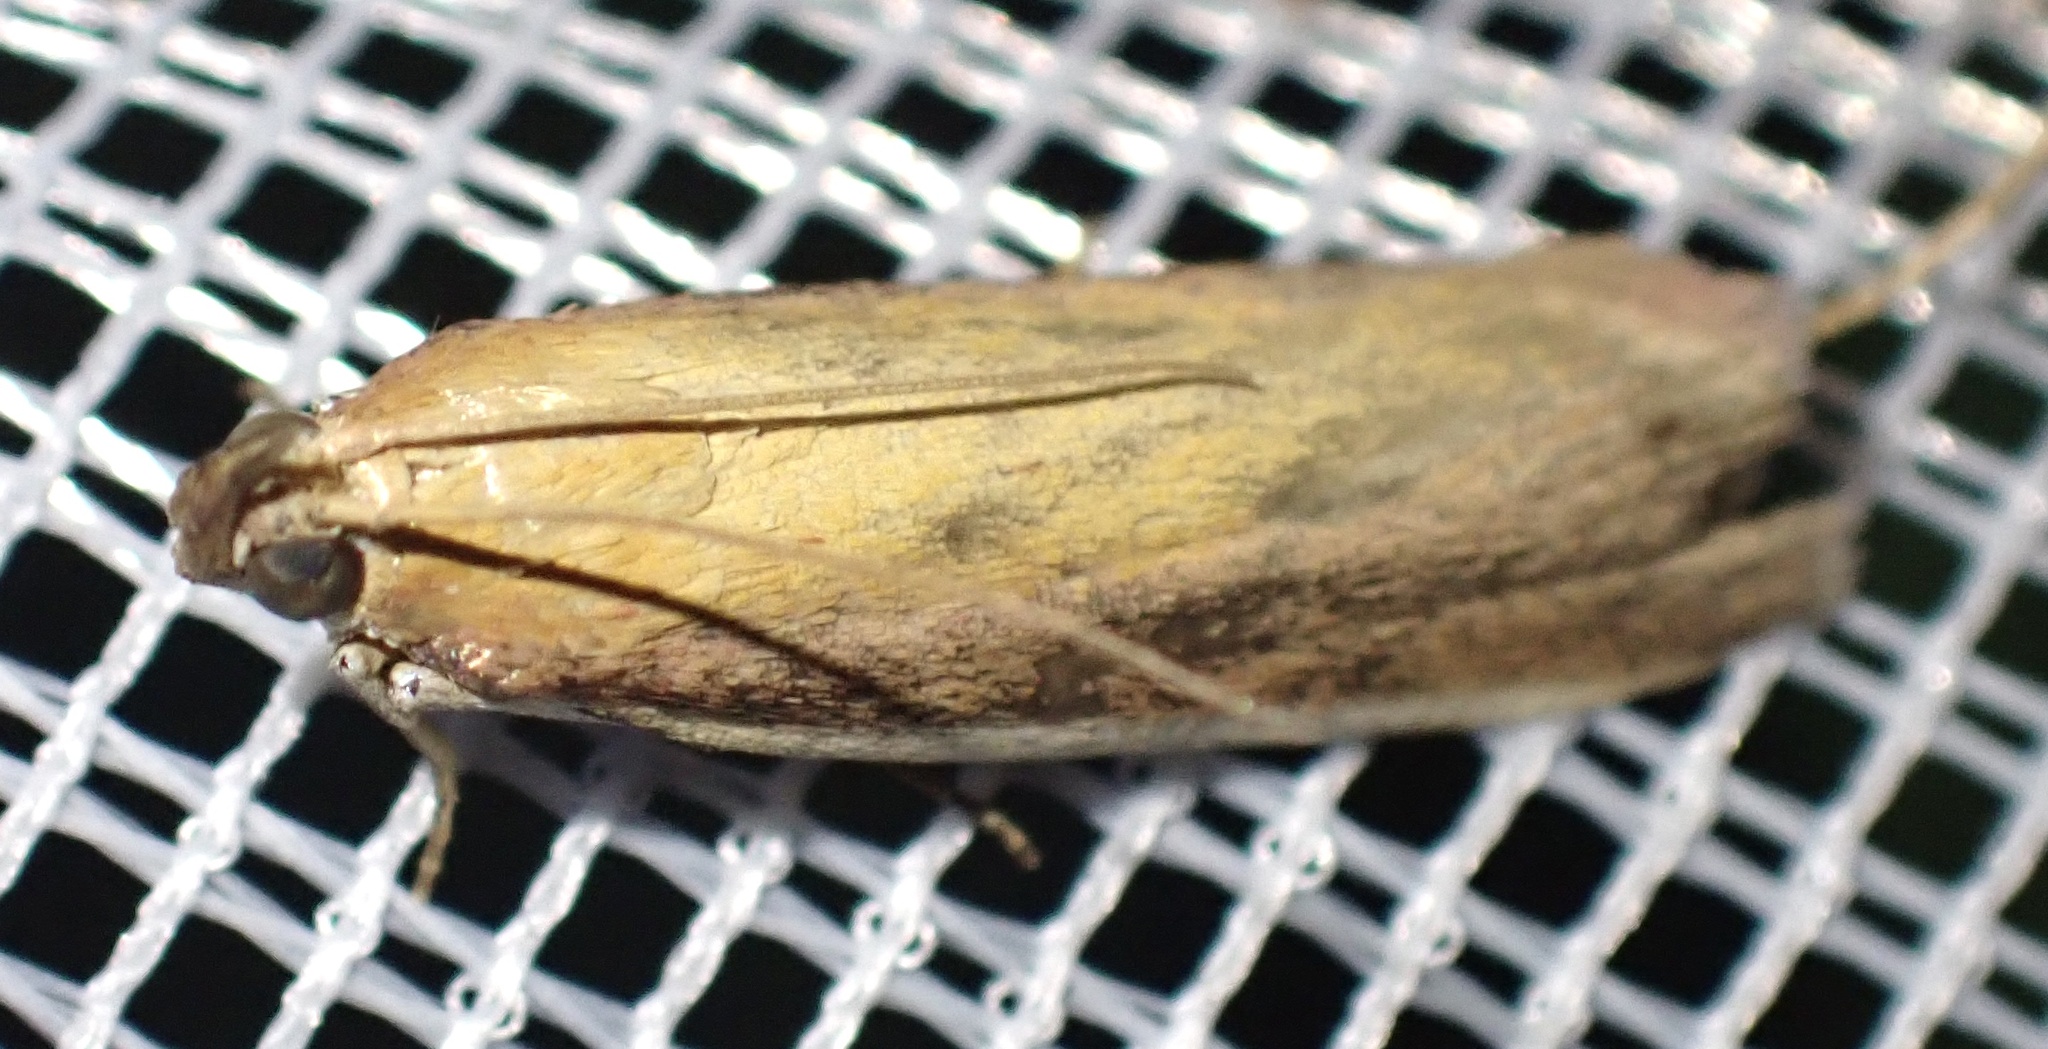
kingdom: Animalia
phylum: Arthropoda
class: Insecta
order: Lepidoptera
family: Pyralidae
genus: Oncocera
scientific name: Oncocera semirubella
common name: Rosy-striped knot-horn
